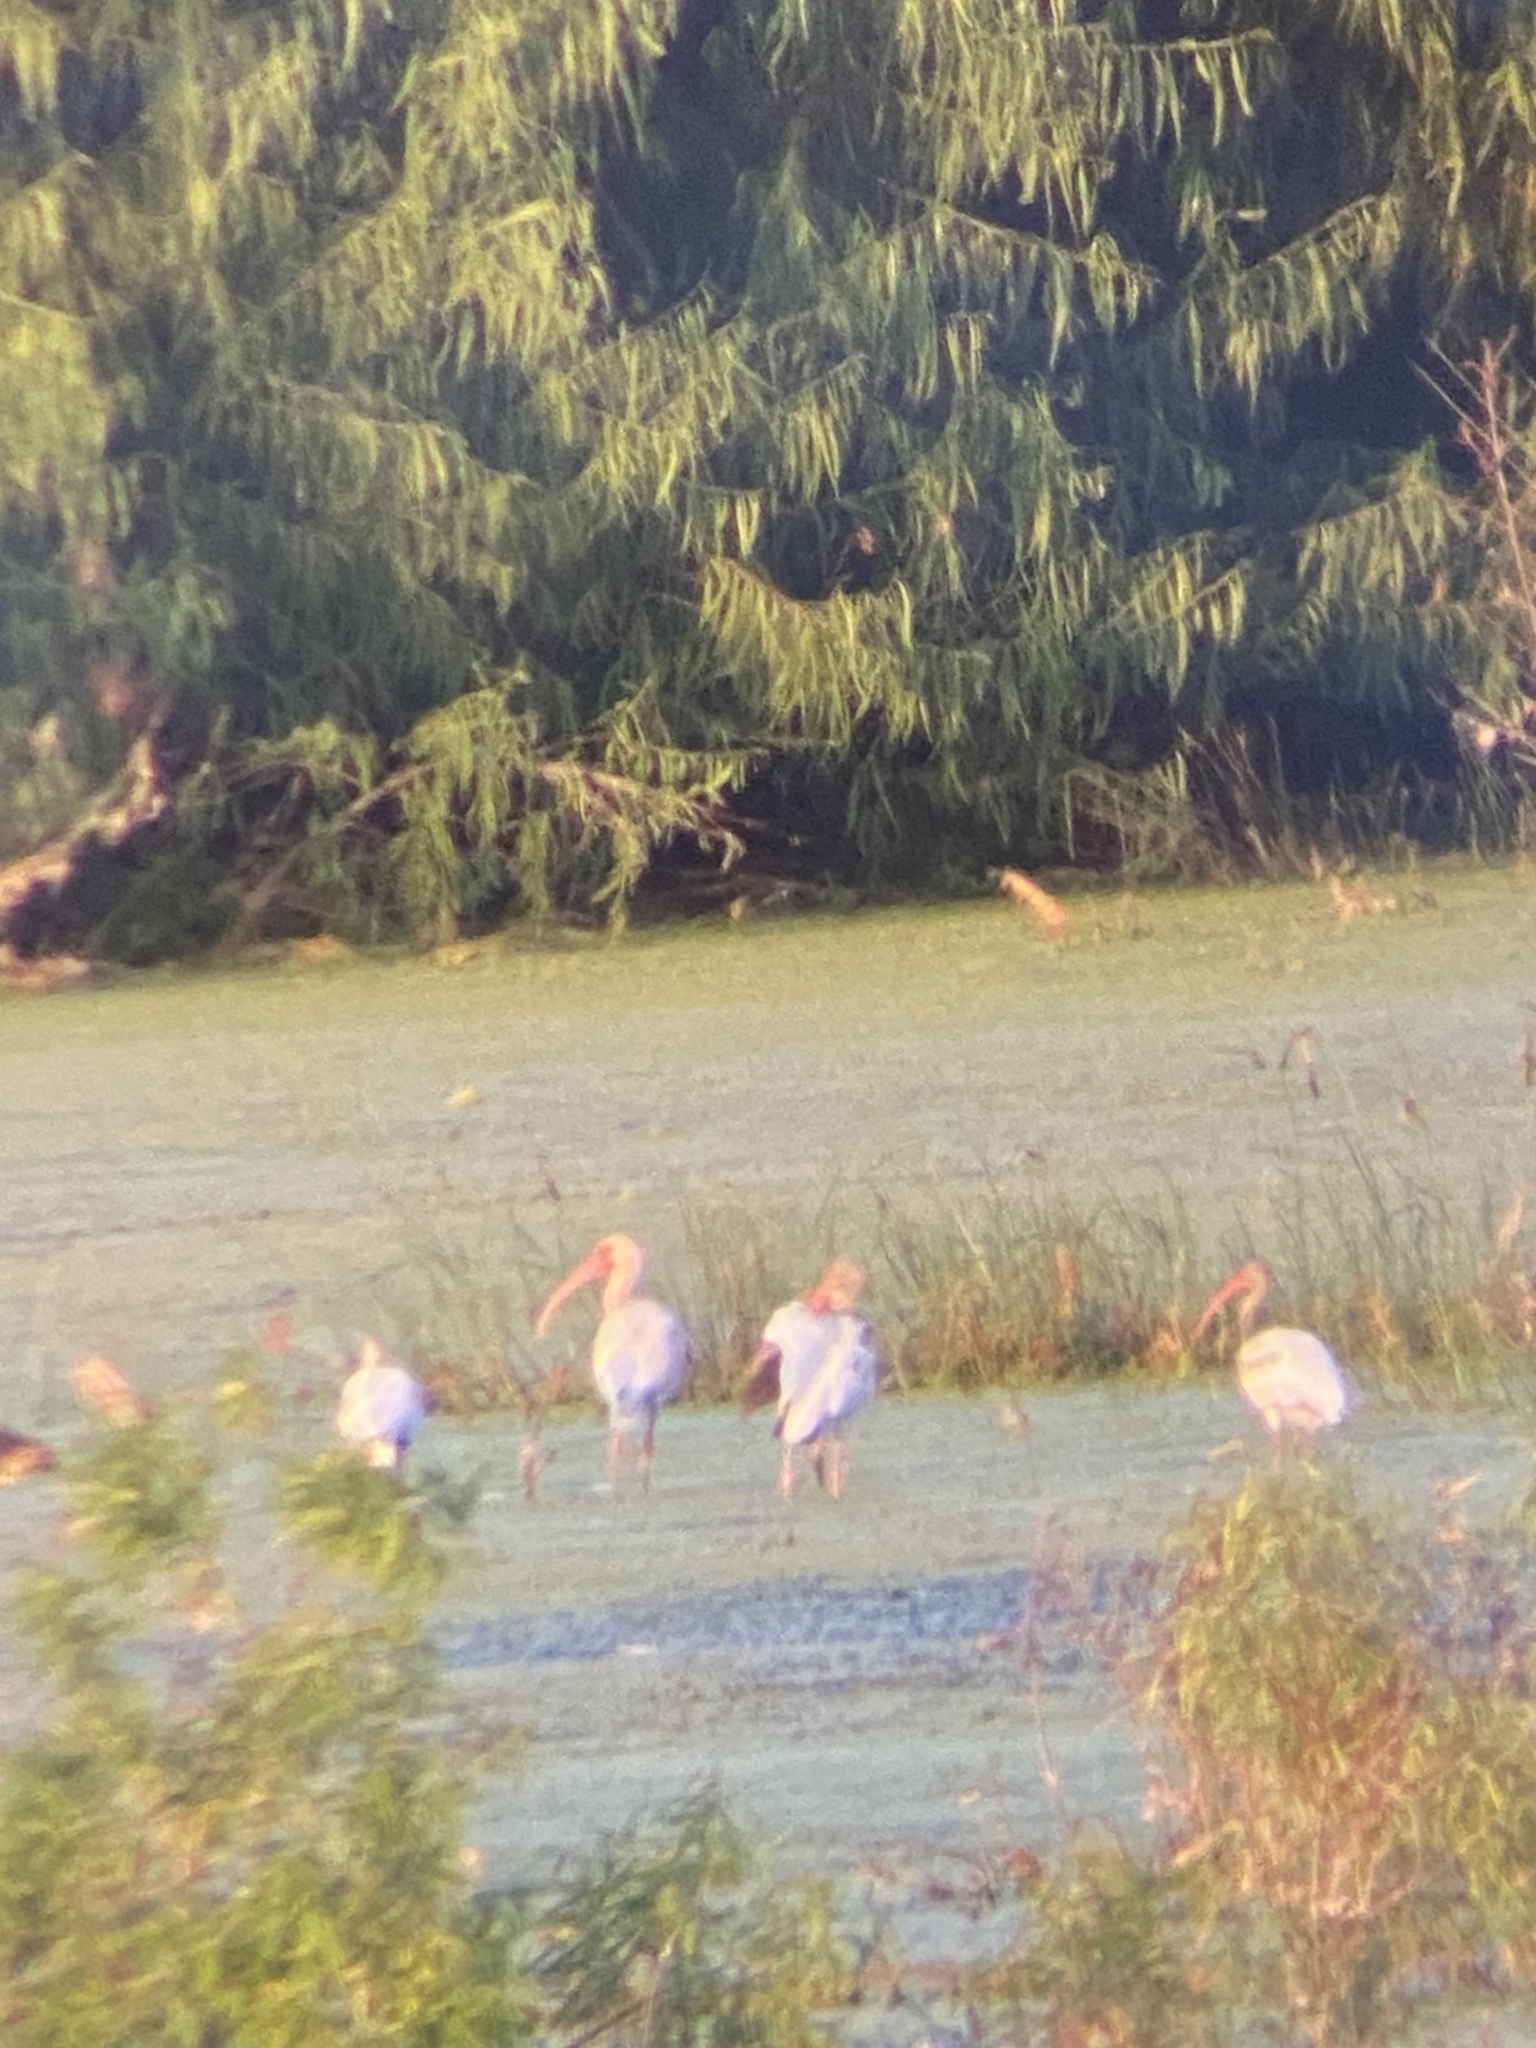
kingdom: Animalia
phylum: Chordata
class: Aves
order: Pelecaniformes
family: Threskiornithidae
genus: Eudocimus
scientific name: Eudocimus albus
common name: White ibis
